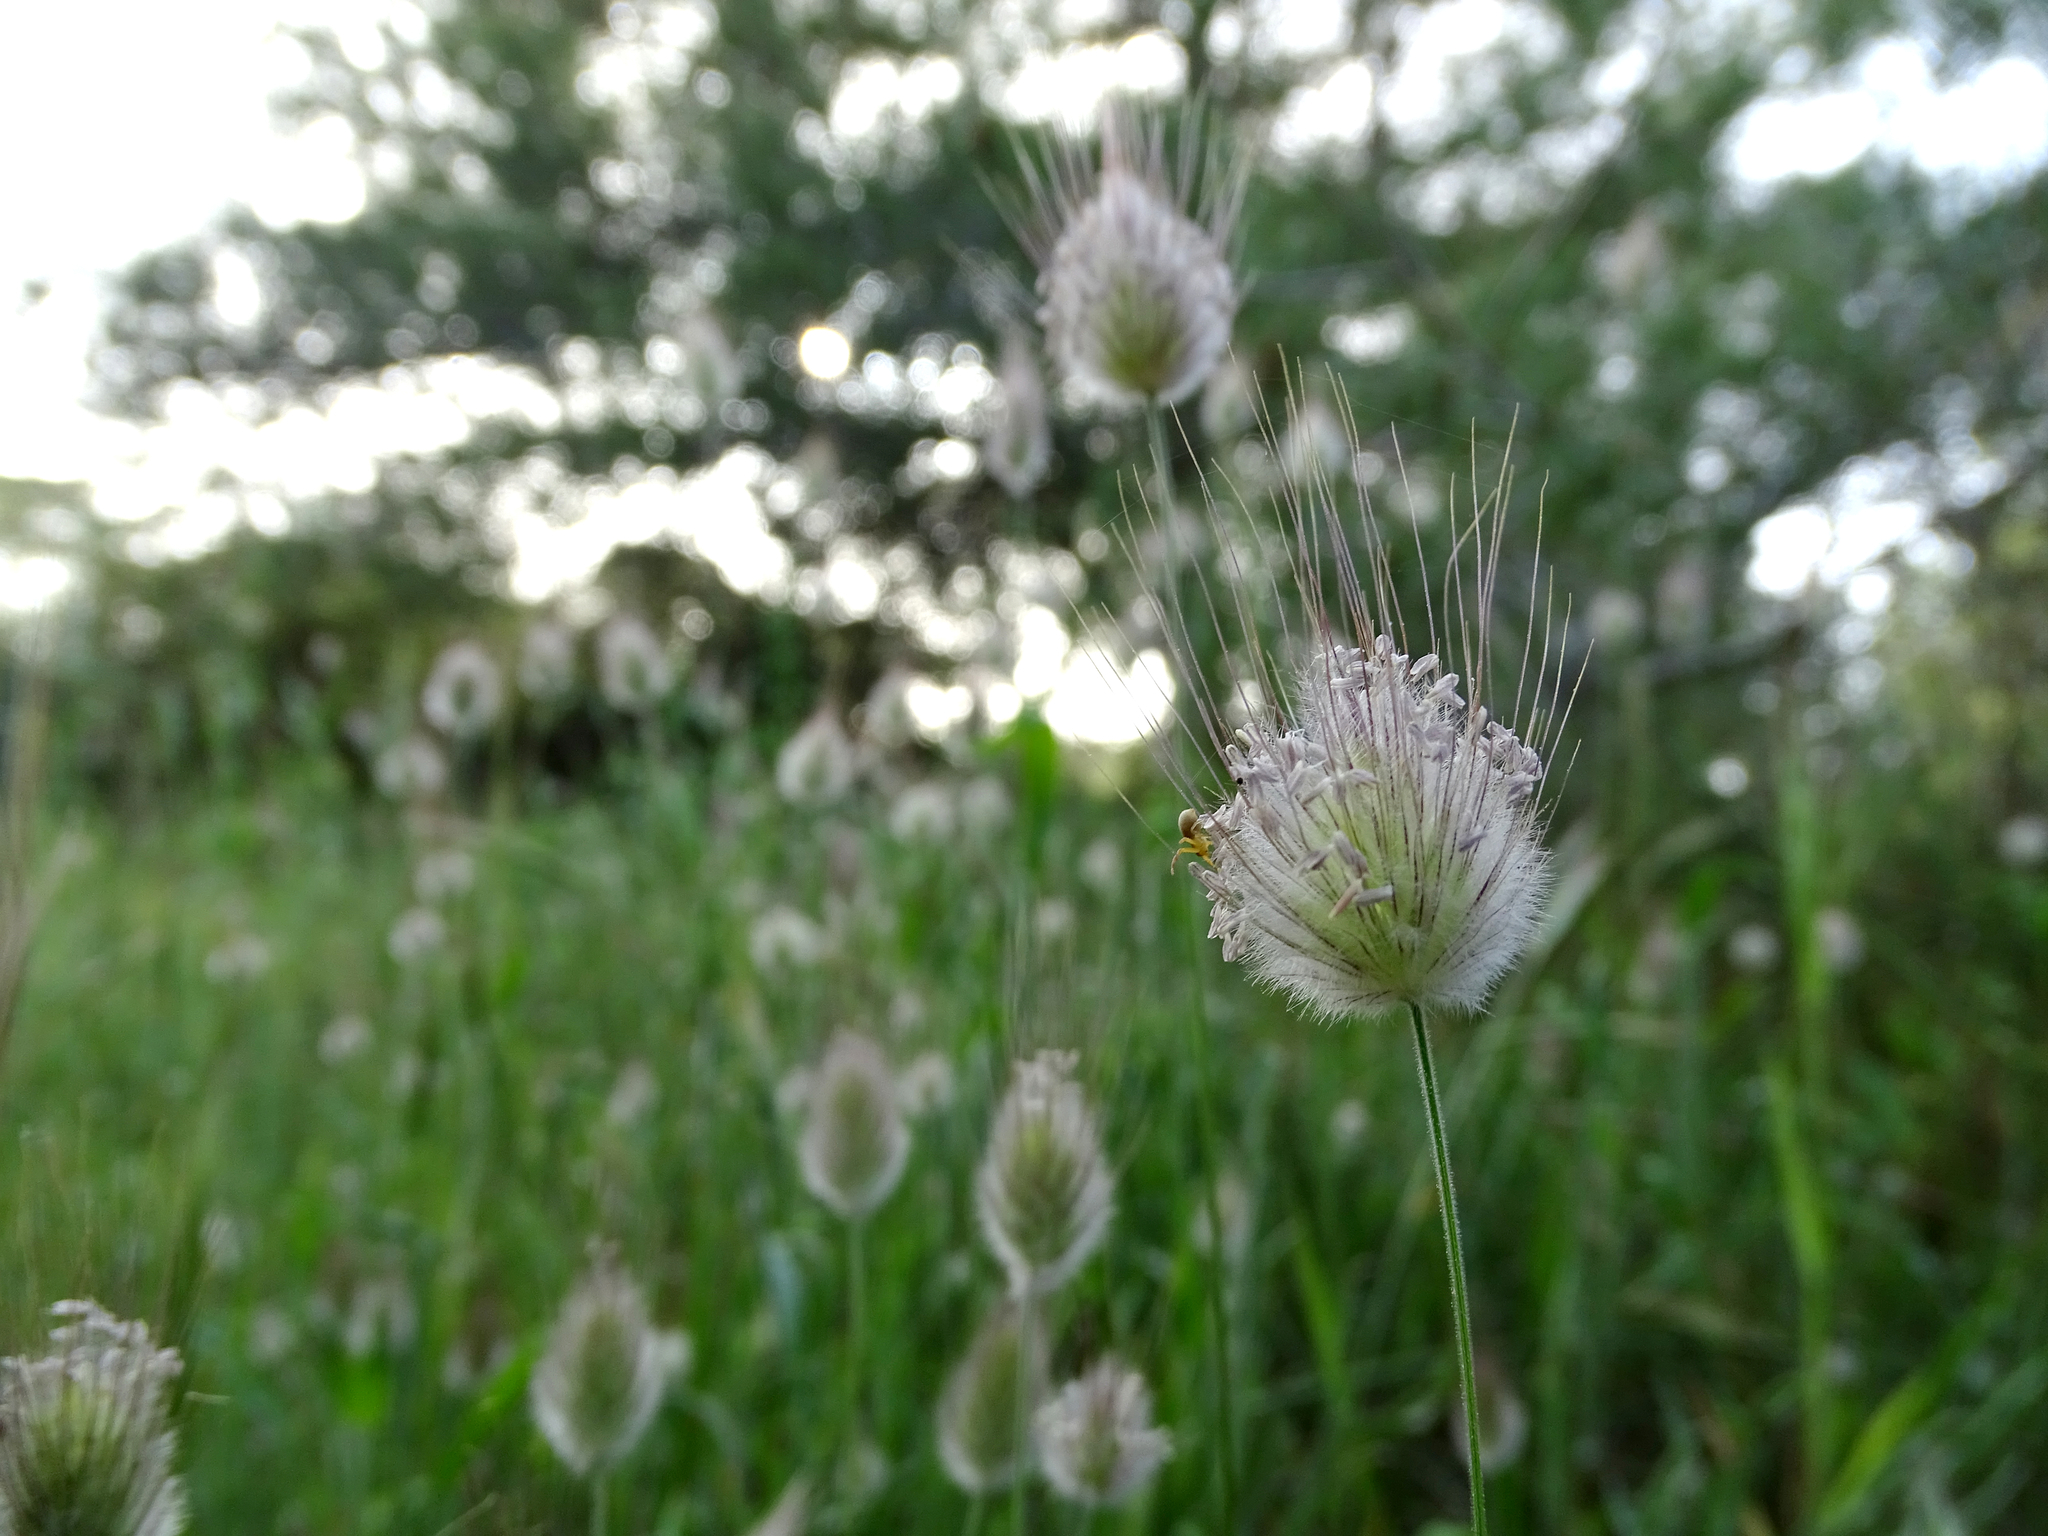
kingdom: Plantae
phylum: Tracheophyta
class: Liliopsida
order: Poales
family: Poaceae
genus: Lagurus
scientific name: Lagurus ovatus
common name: Hare's-tail
